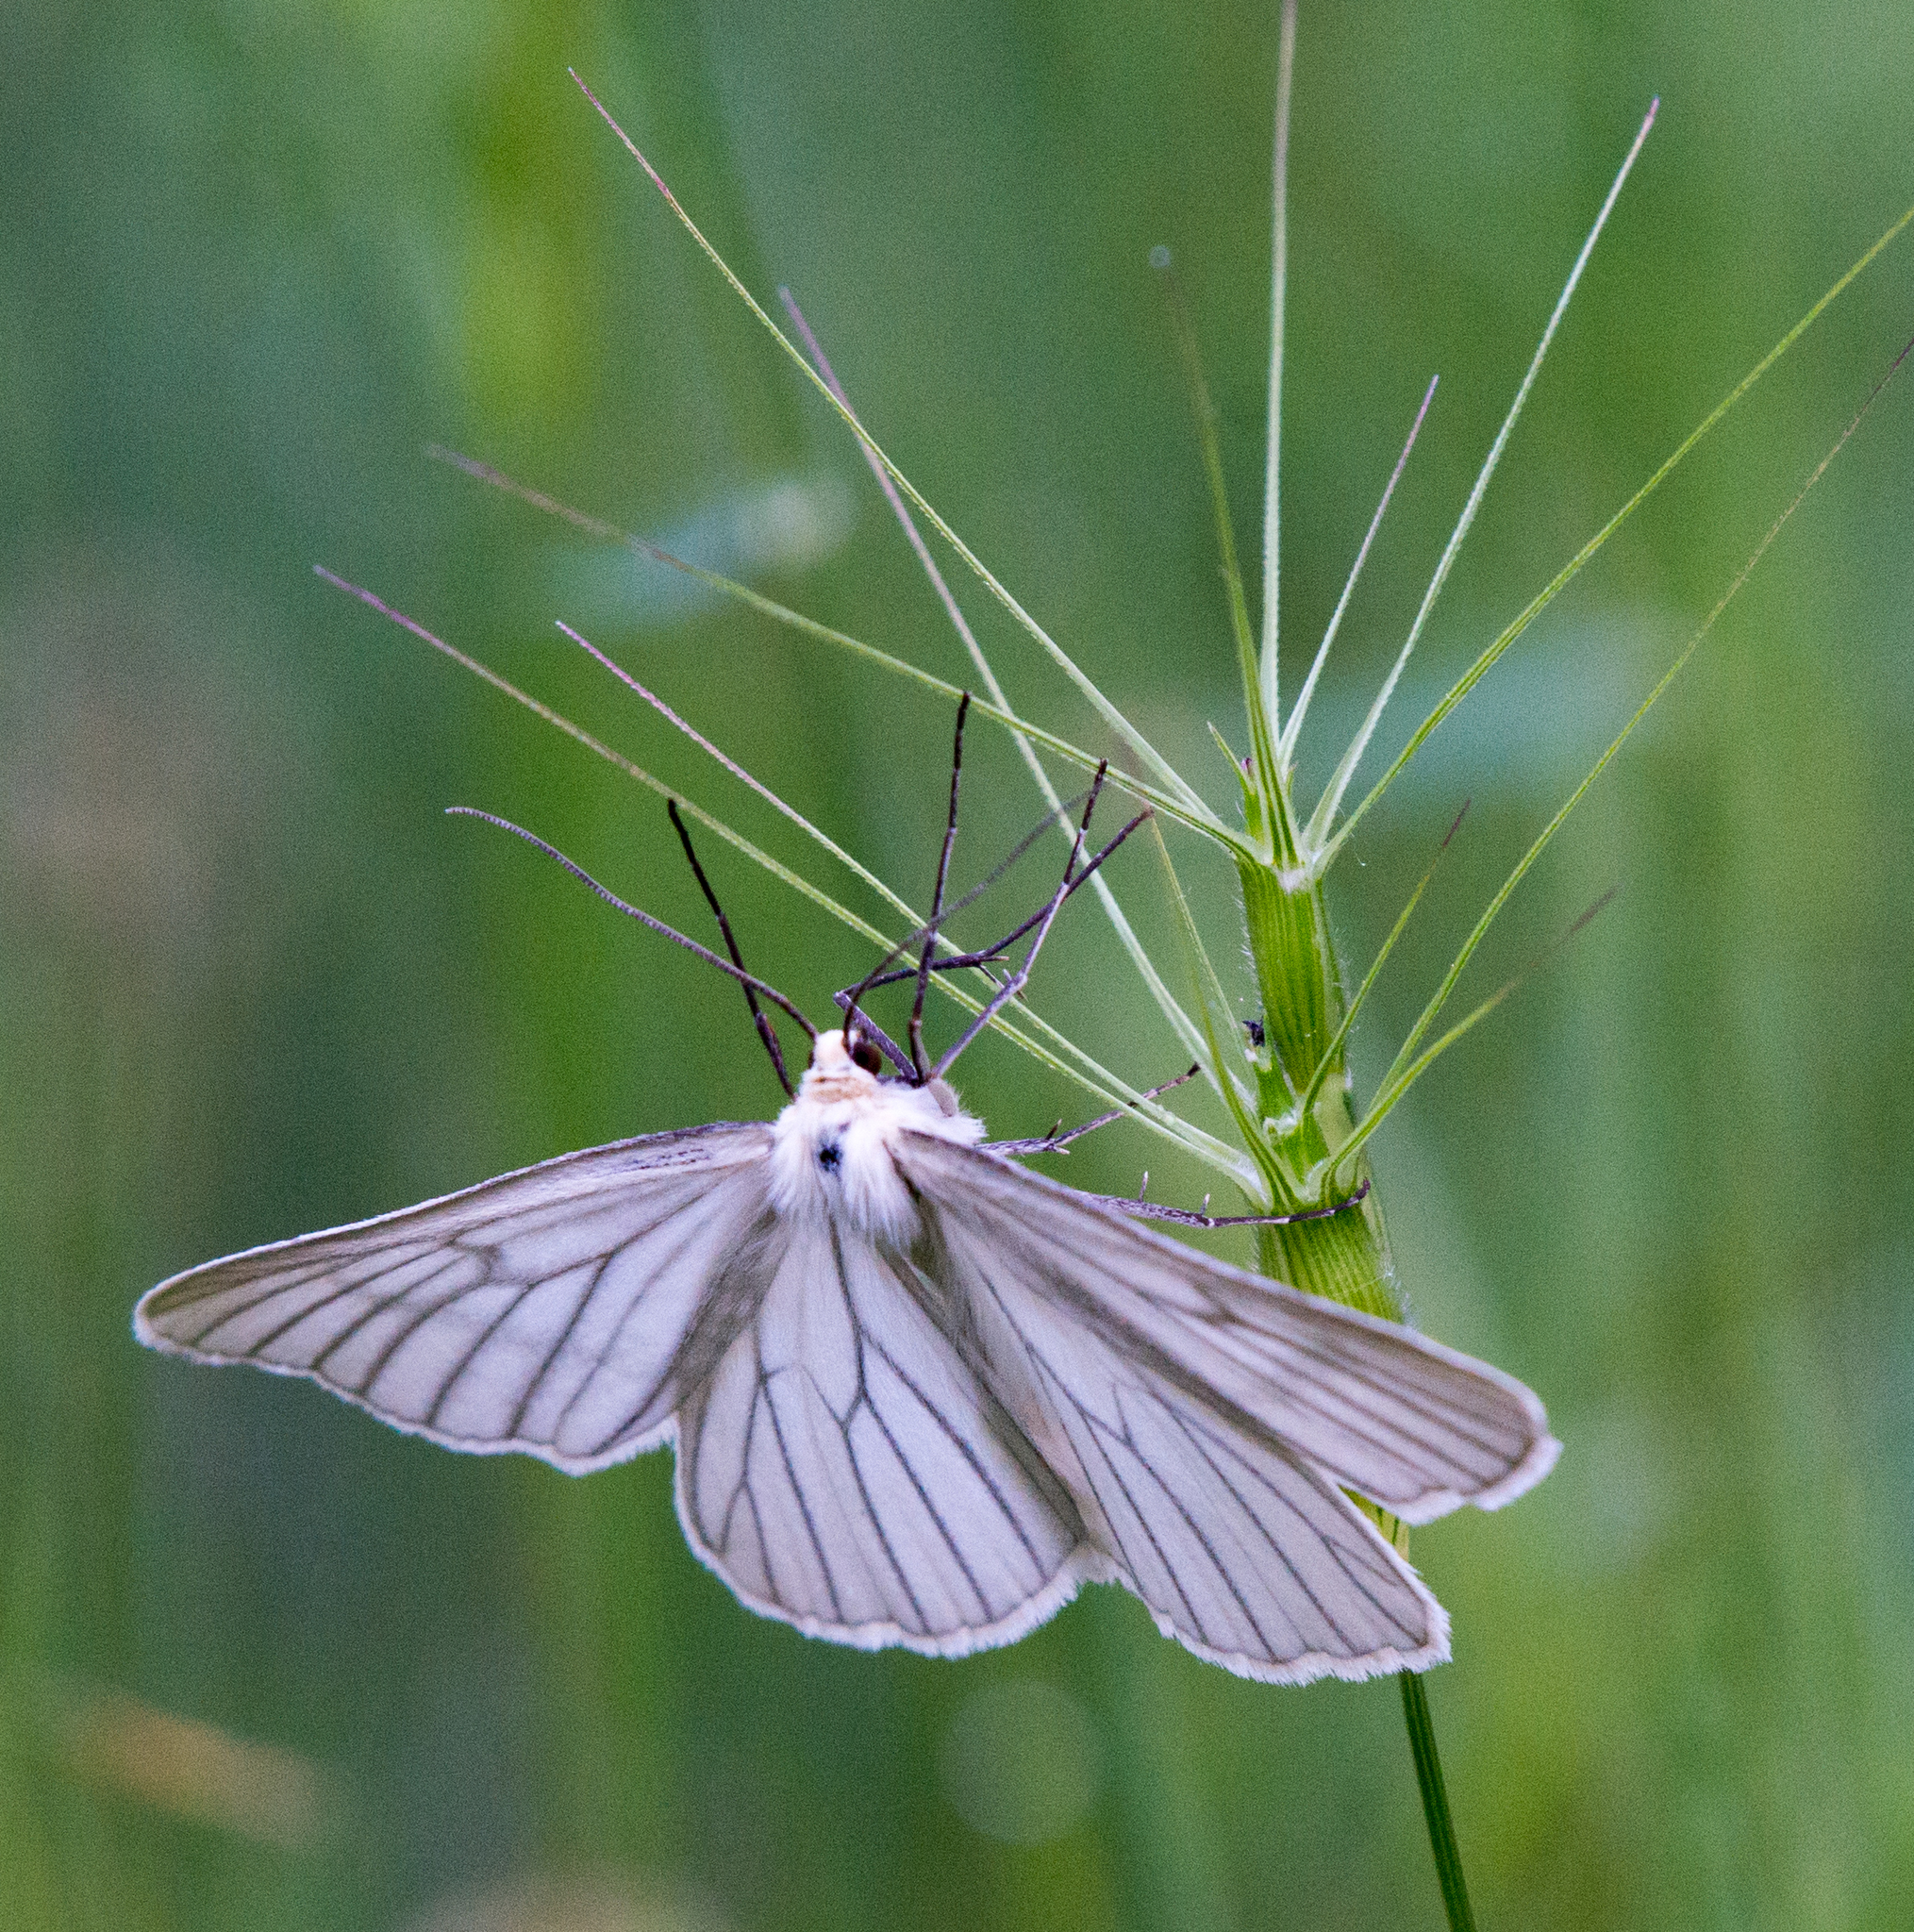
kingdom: Animalia
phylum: Arthropoda
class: Insecta
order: Lepidoptera
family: Geometridae
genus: Siona
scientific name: Siona lineata
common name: Black-veined moth
